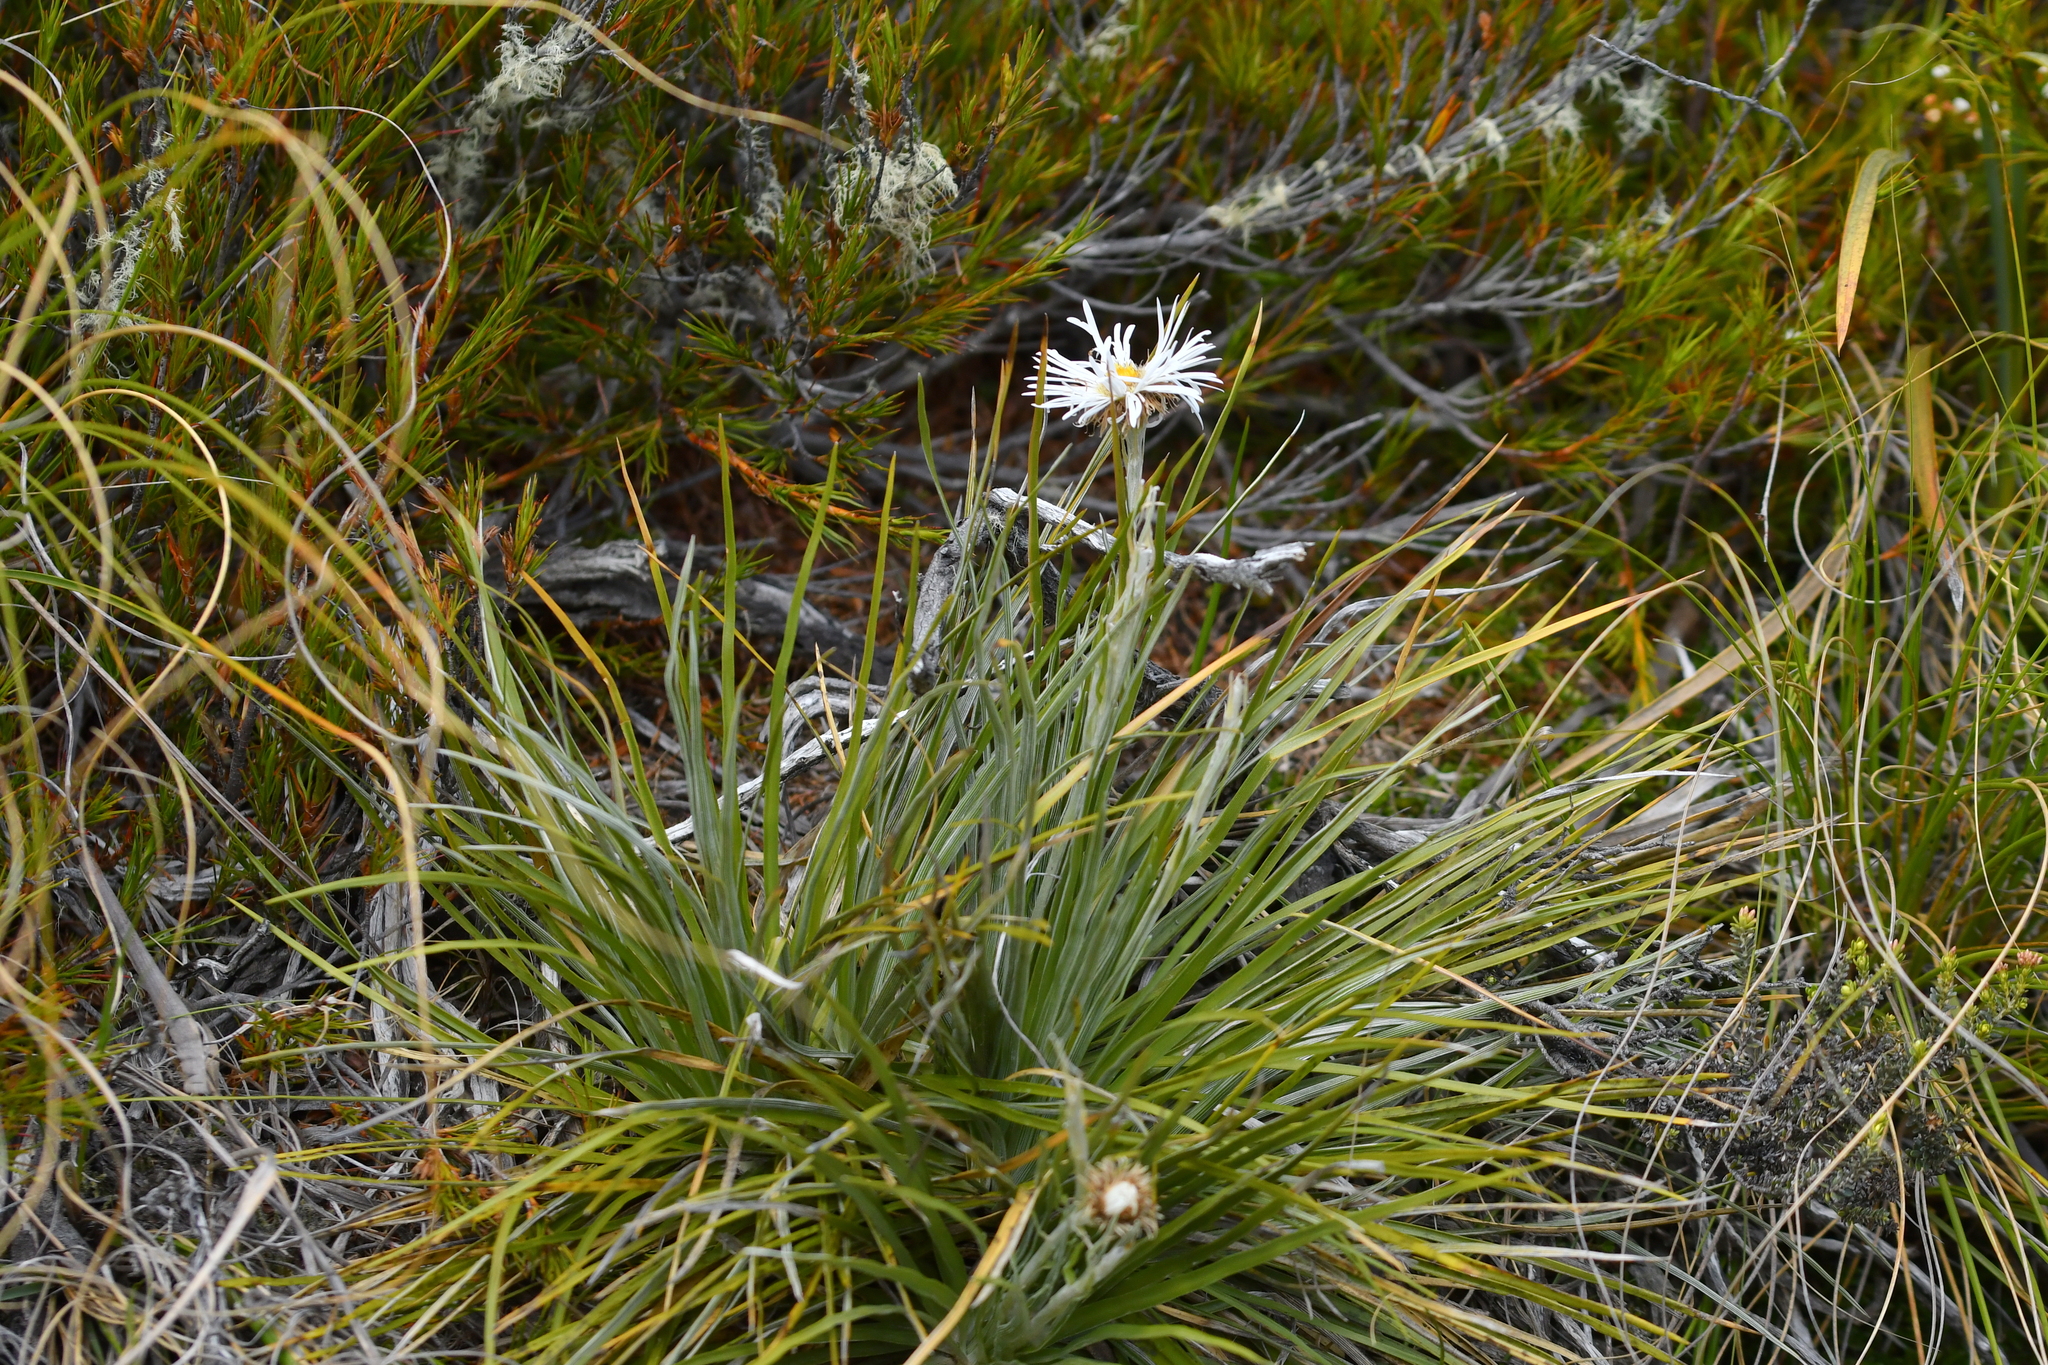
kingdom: Plantae
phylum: Tracheophyta
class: Magnoliopsida
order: Asterales
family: Asteraceae
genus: Celmisia
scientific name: Celmisia lyallii
